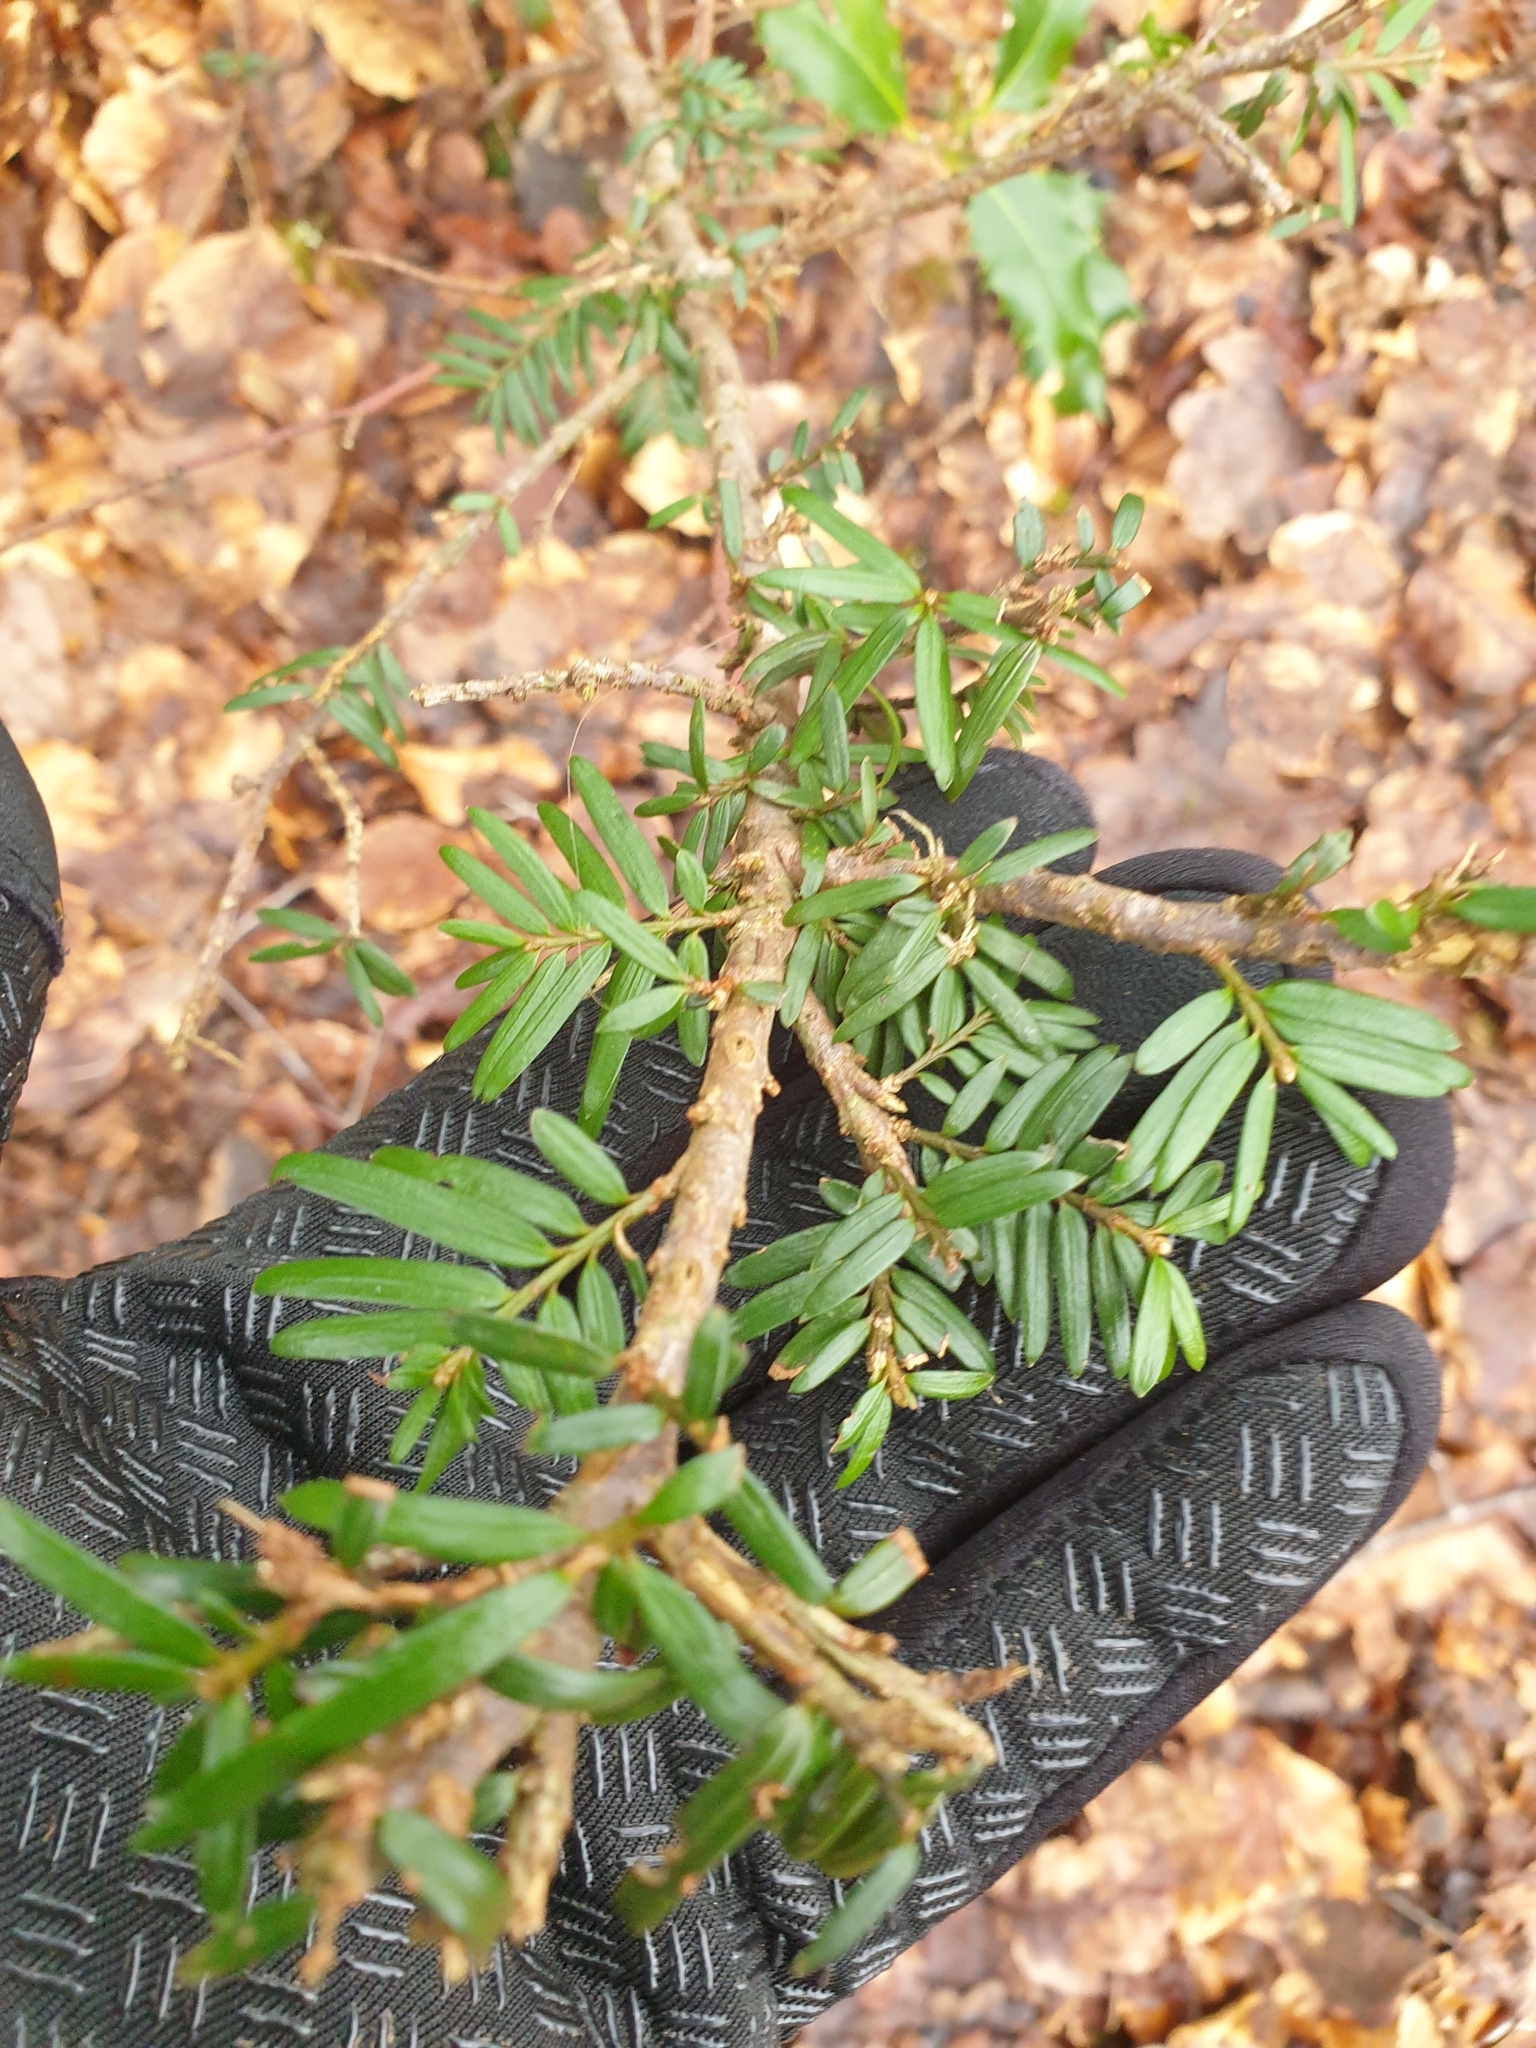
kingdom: Plantae
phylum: Tracheophyta
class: Pinopsida
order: Pinales
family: Taxaceae
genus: Taxus
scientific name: Taxus baccata
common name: Yew
